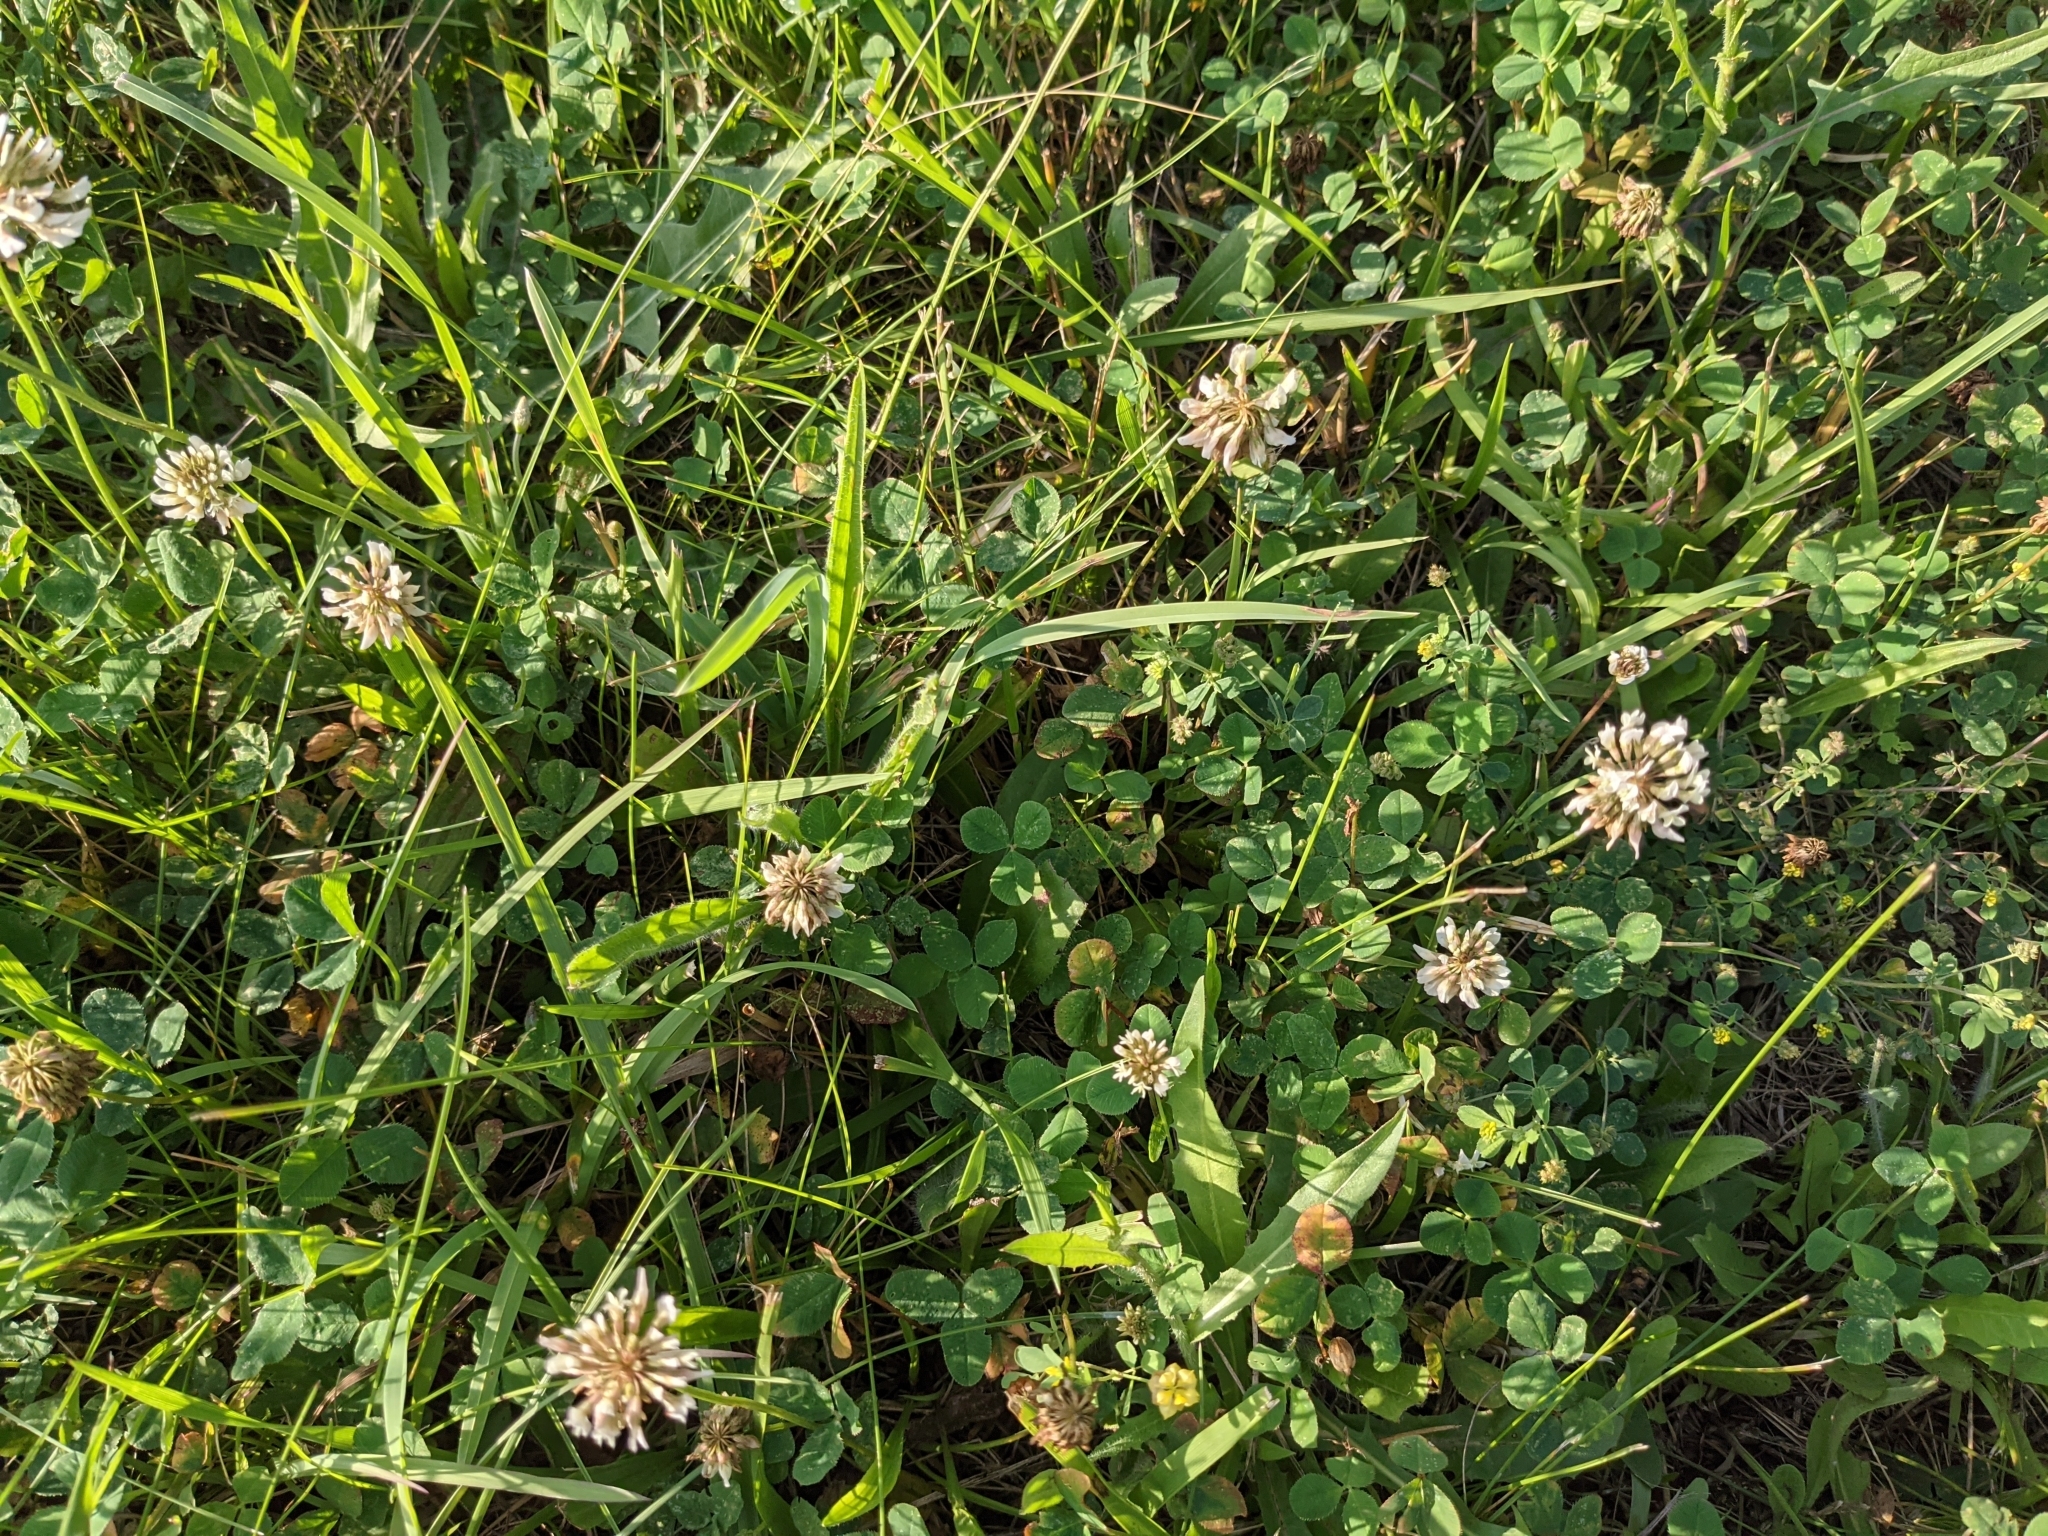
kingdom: Plantae
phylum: Tracheophyta
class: Magnoliopsida
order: Fabales
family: Fabaceae
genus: Trifolium
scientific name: Trifolium repens
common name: White clover
